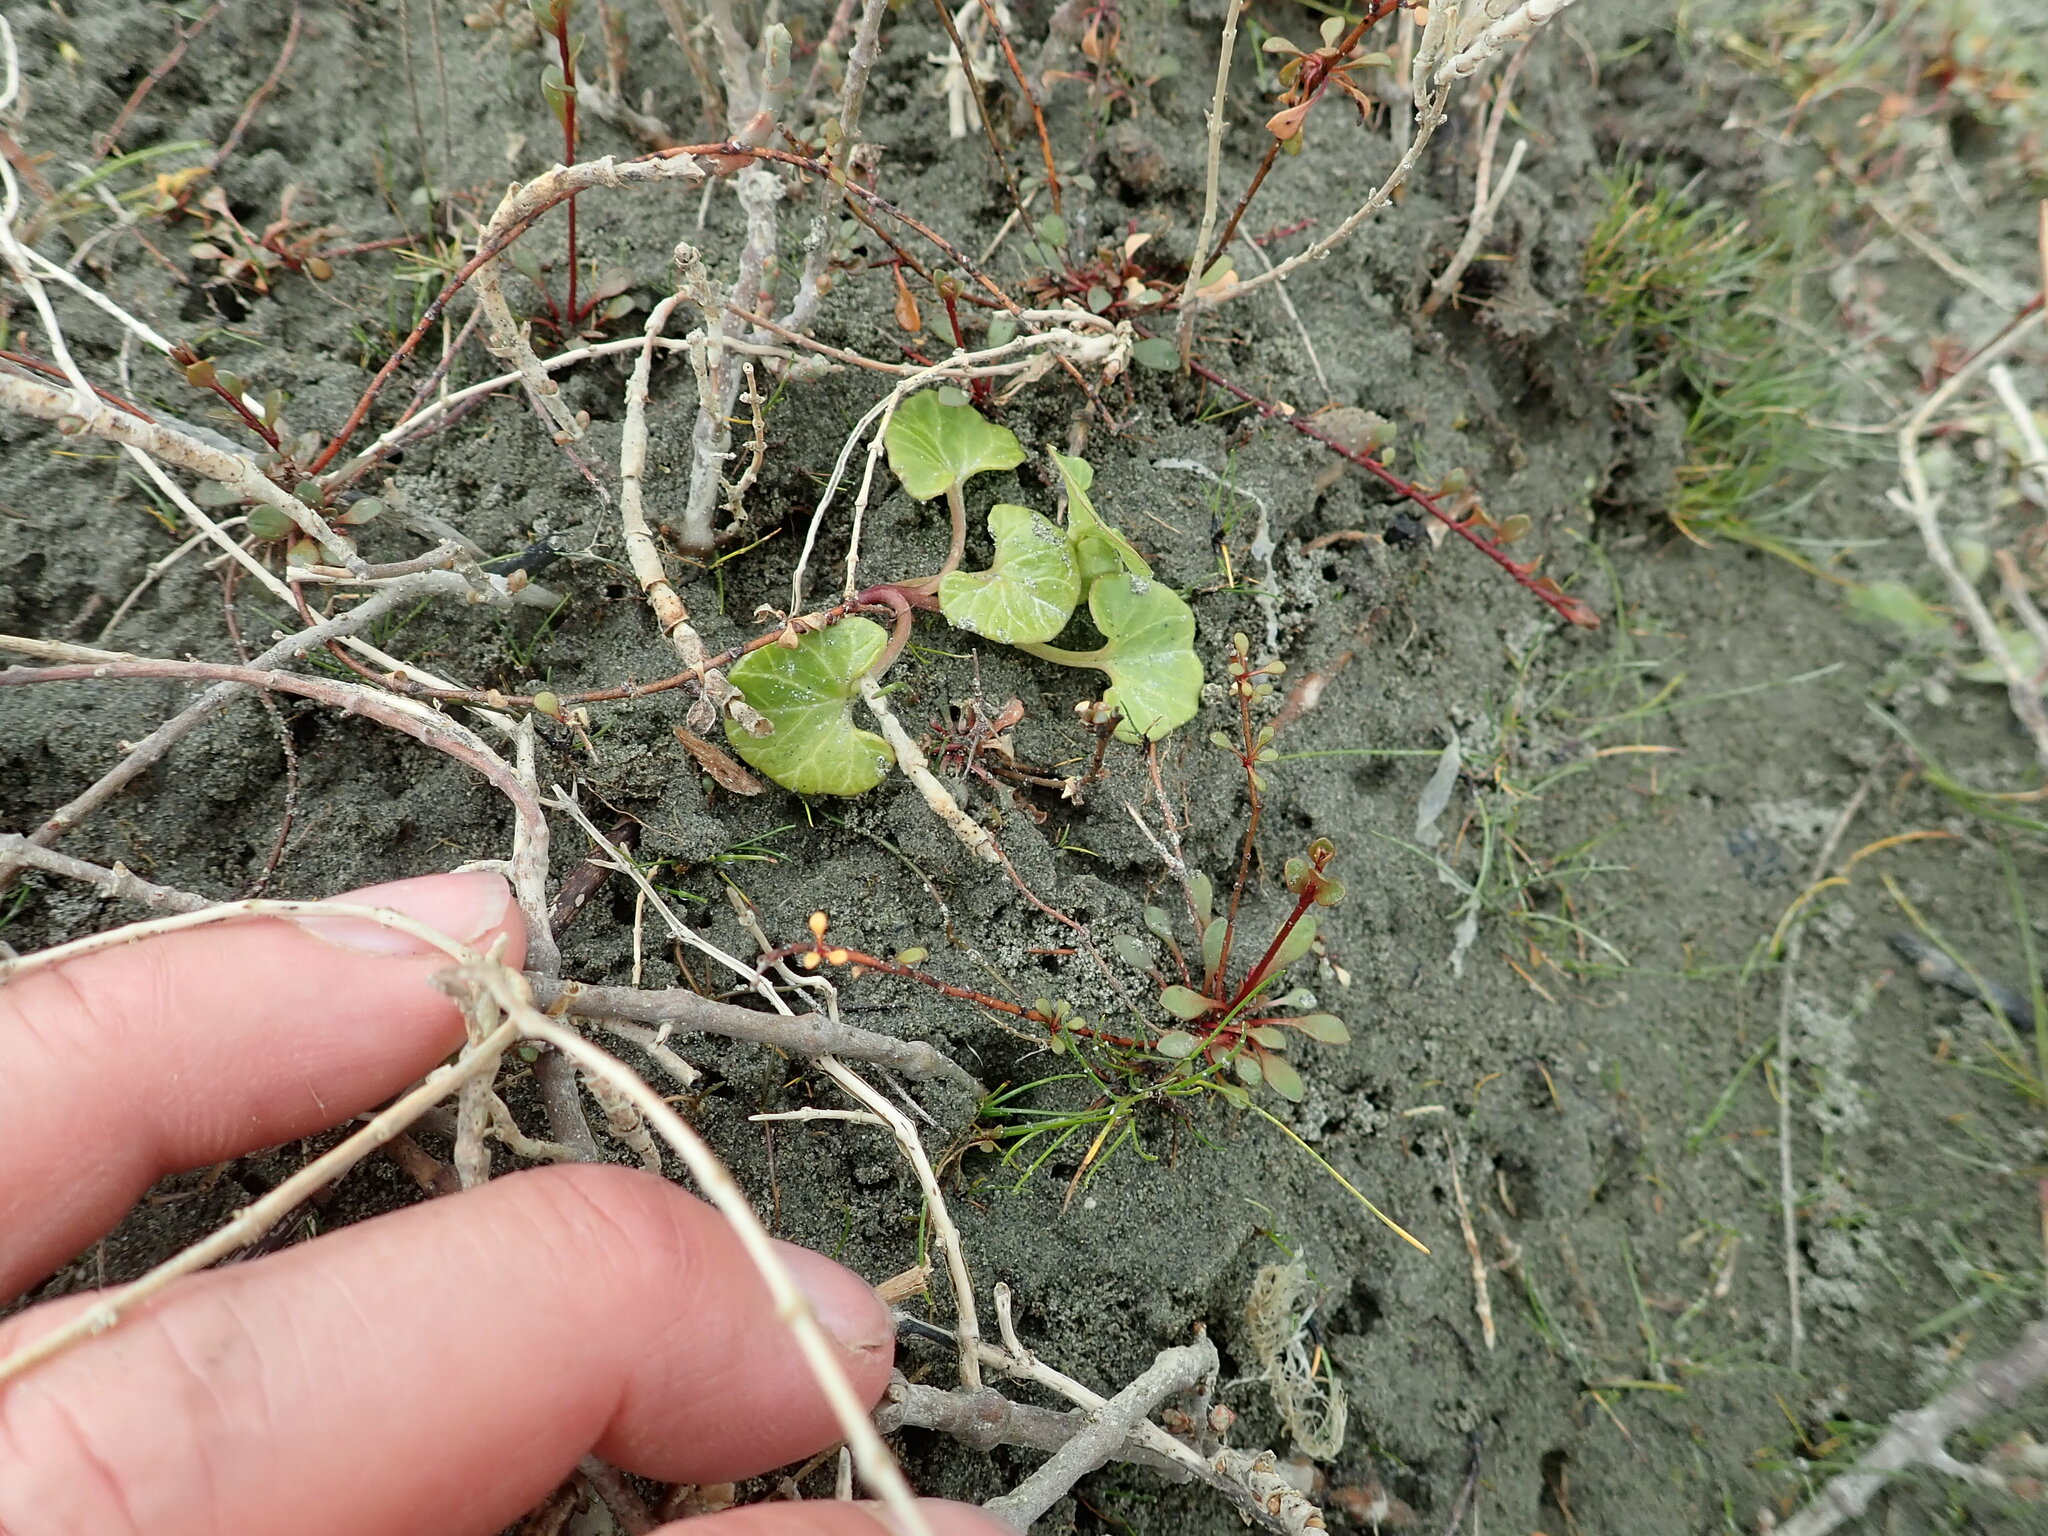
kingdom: Plantae
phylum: Tracheophyta
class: Magnoliopsida
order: Solanales
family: Convolvulaceae
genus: Calystegia
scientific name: Calystegia soldanella
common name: Sea bindweed
